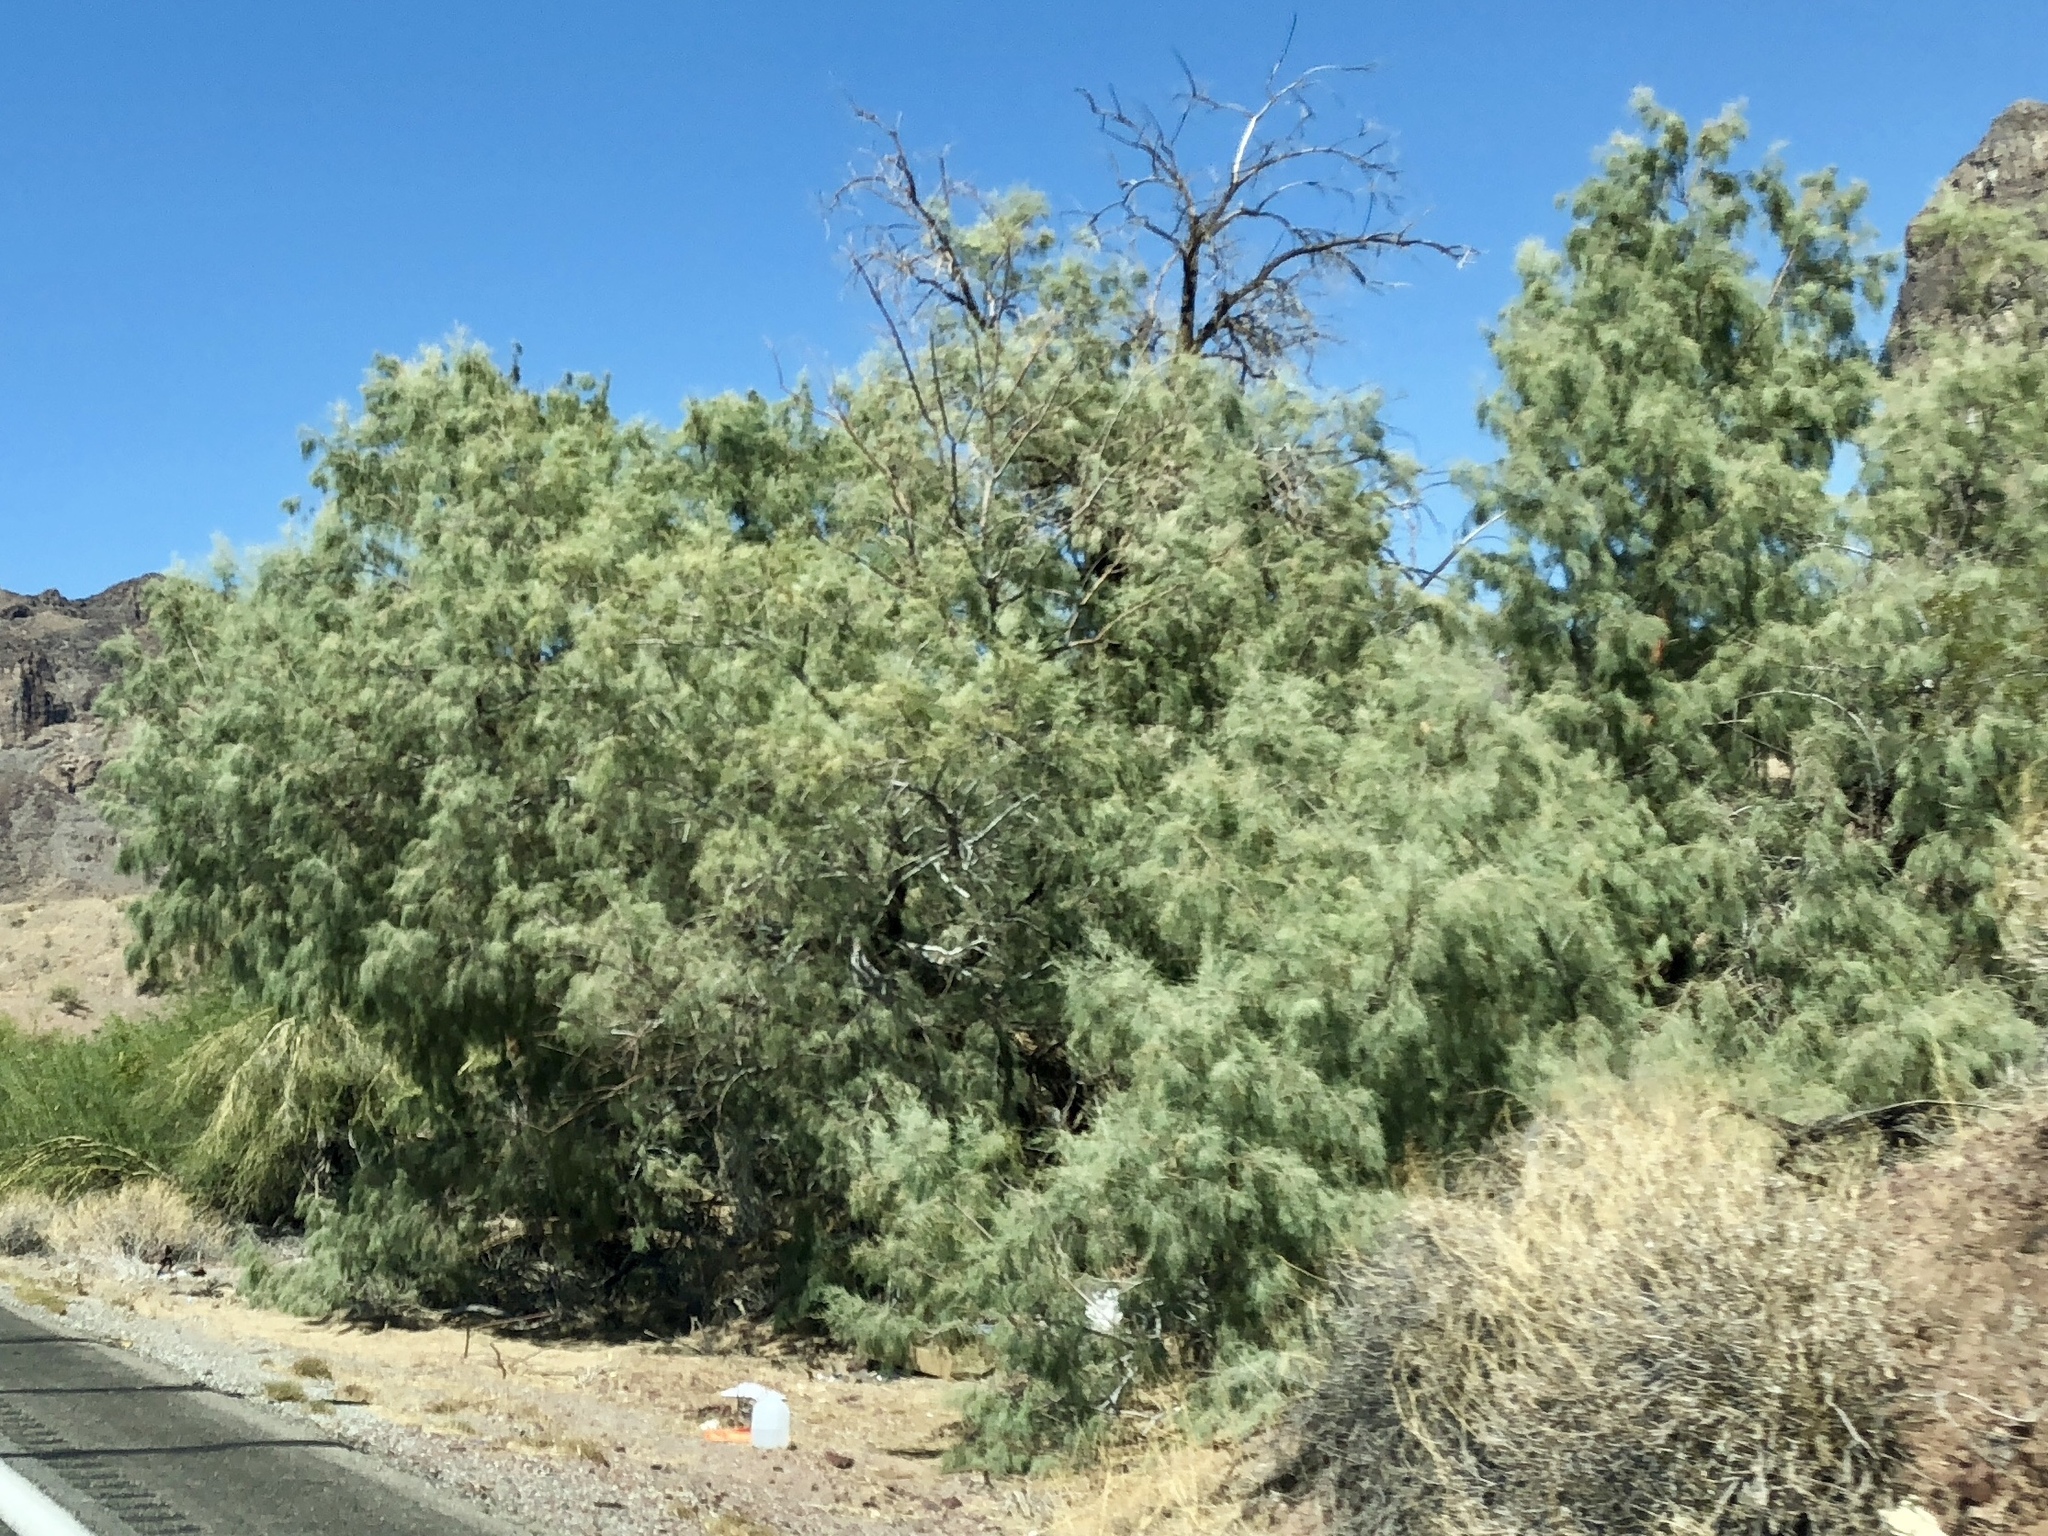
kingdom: Plantae
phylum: Tracheophyta
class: Magnoliopsida
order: Caryophyllales
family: Tamaricaceae
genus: Tamarix
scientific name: Tamarix aphylla
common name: Athel tamarisk
